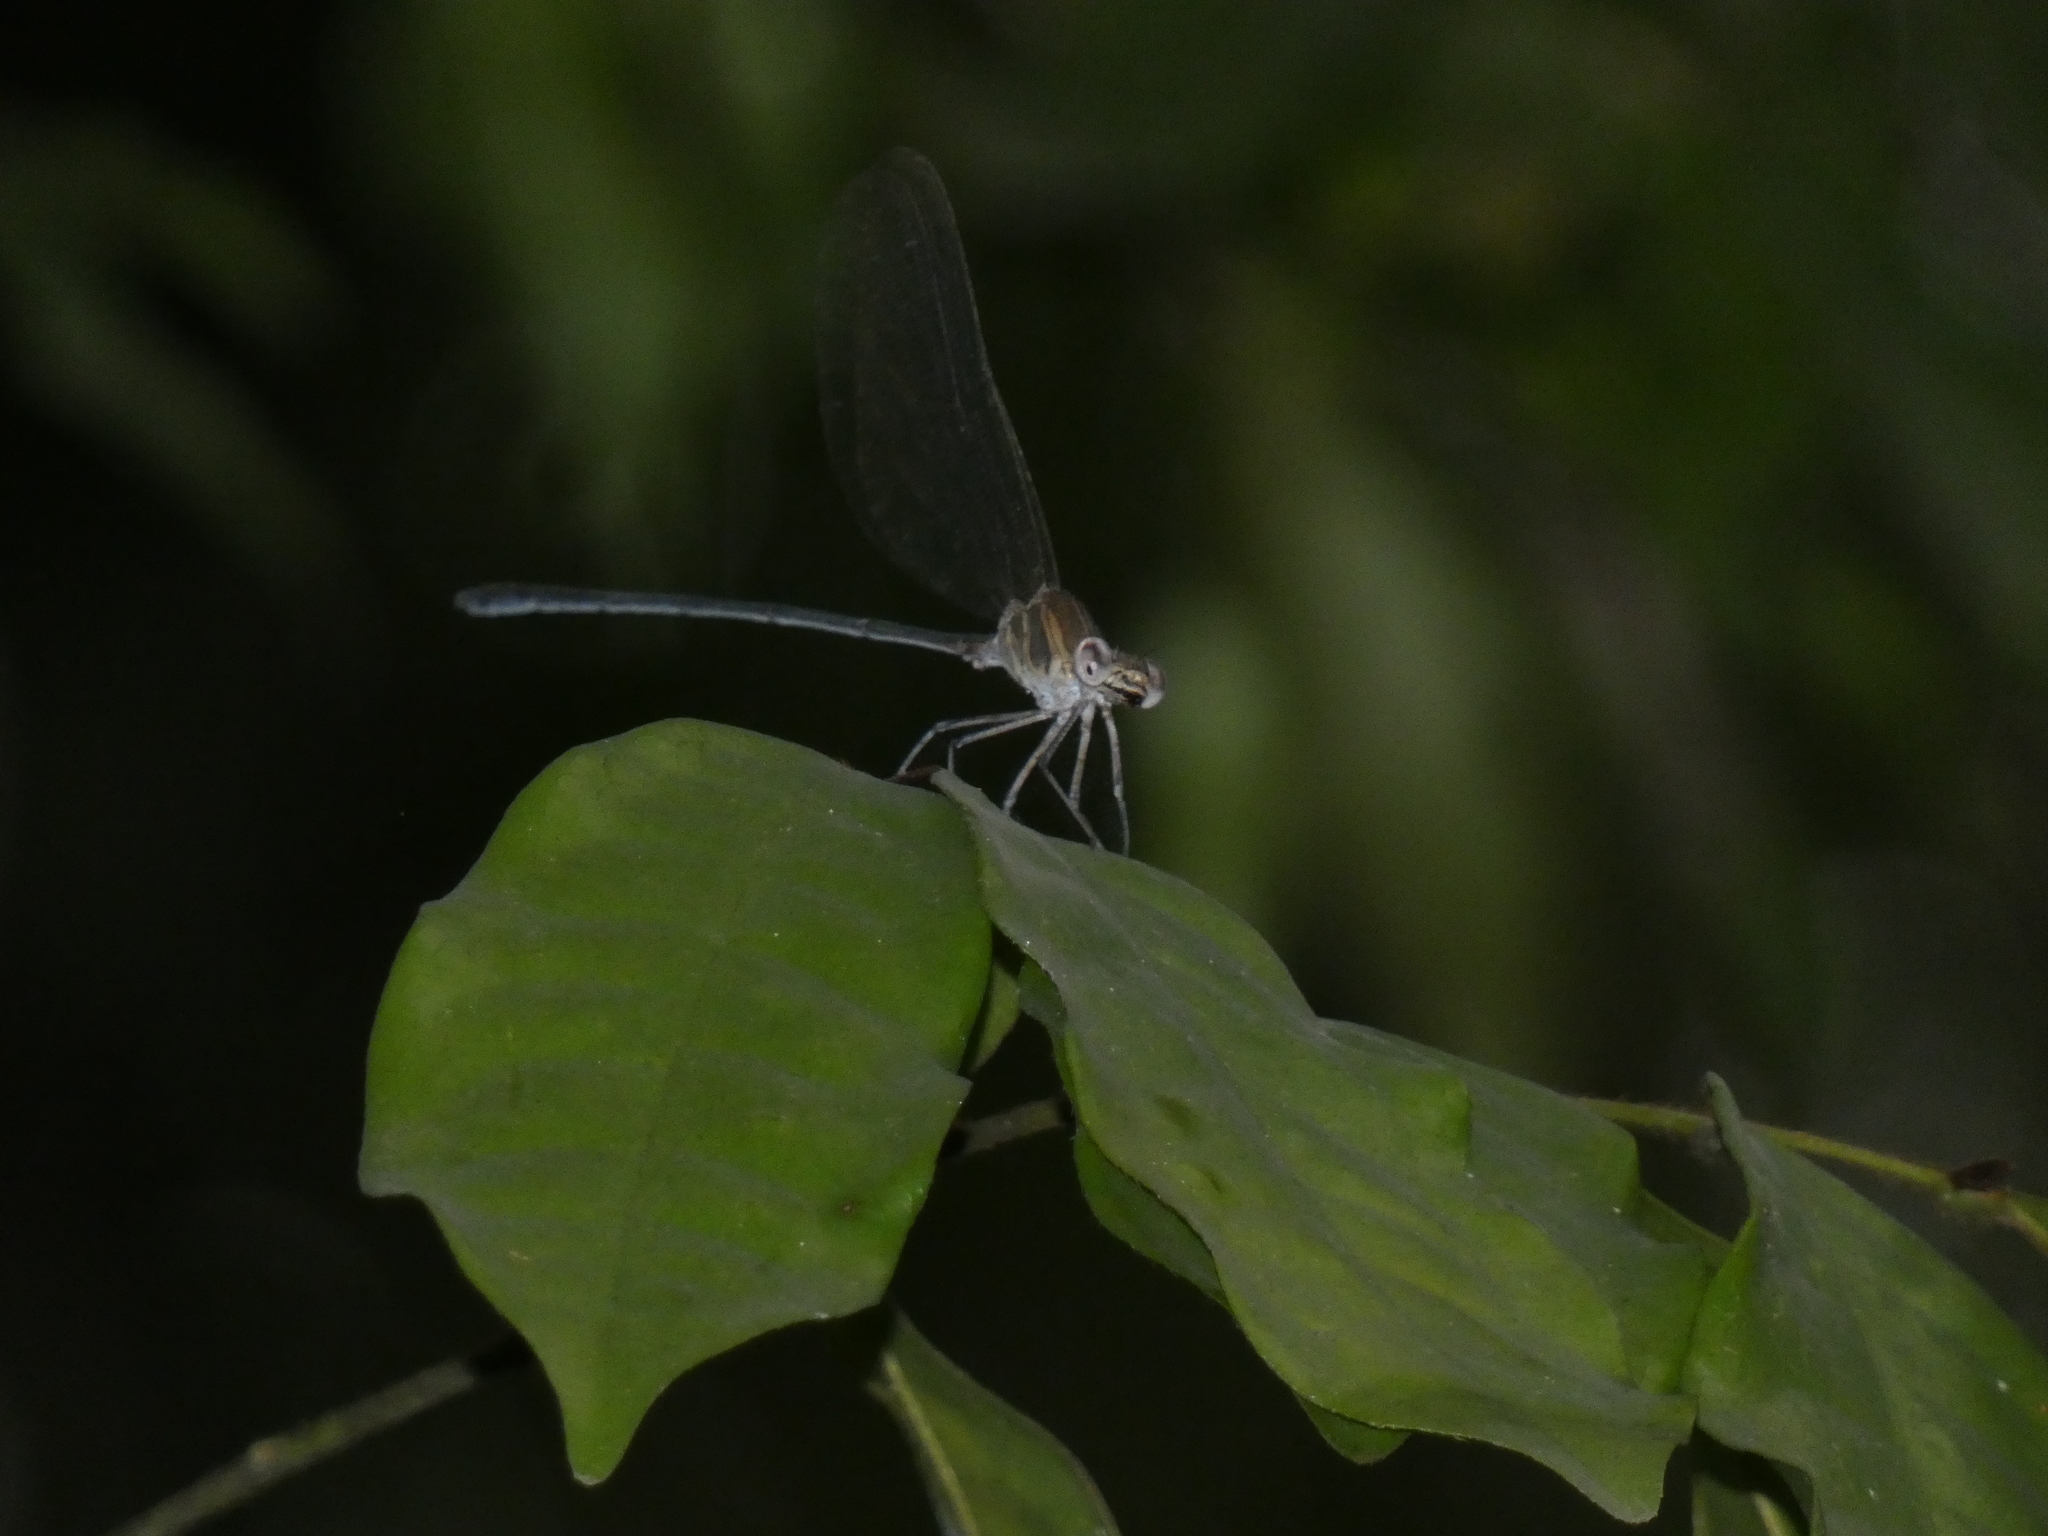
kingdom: Animalia
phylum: Arthropoda
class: Insecta
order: Odonata
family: Calopterygidae
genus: Phaon
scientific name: Phaon iridipennis
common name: Glistening demoiselle
